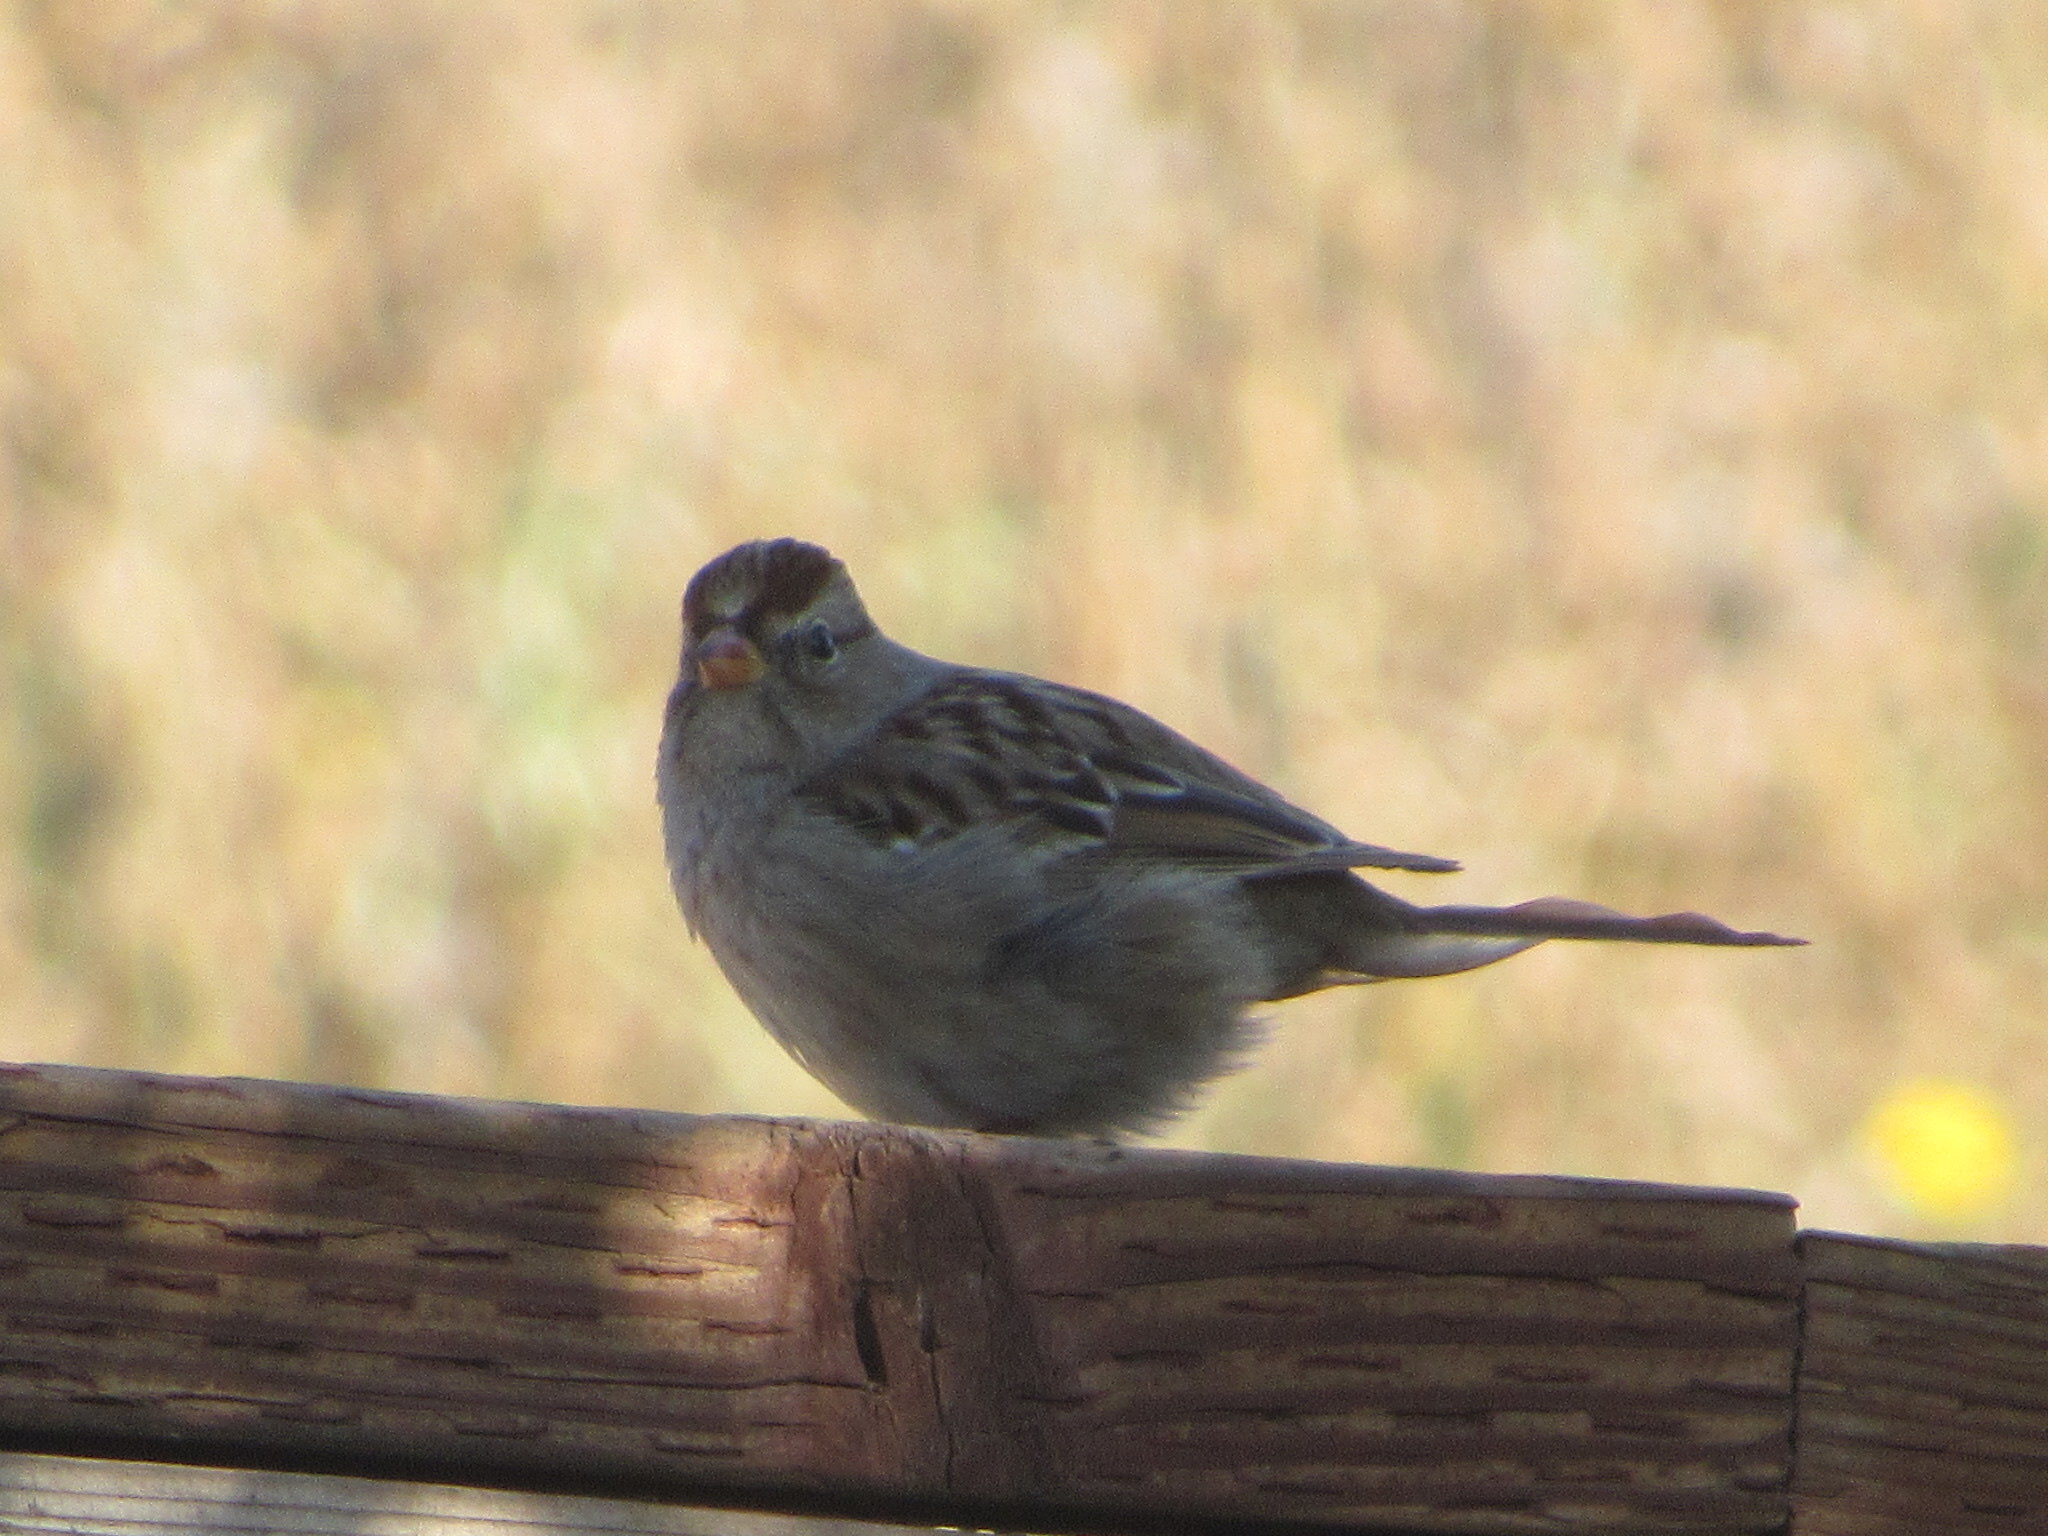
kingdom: Animalia
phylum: Chordata
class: Aves
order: Passeriformes
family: Passerellidae
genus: Zonotrichia
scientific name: Zonotrichia leucophrys
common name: White-crowned sparrow
